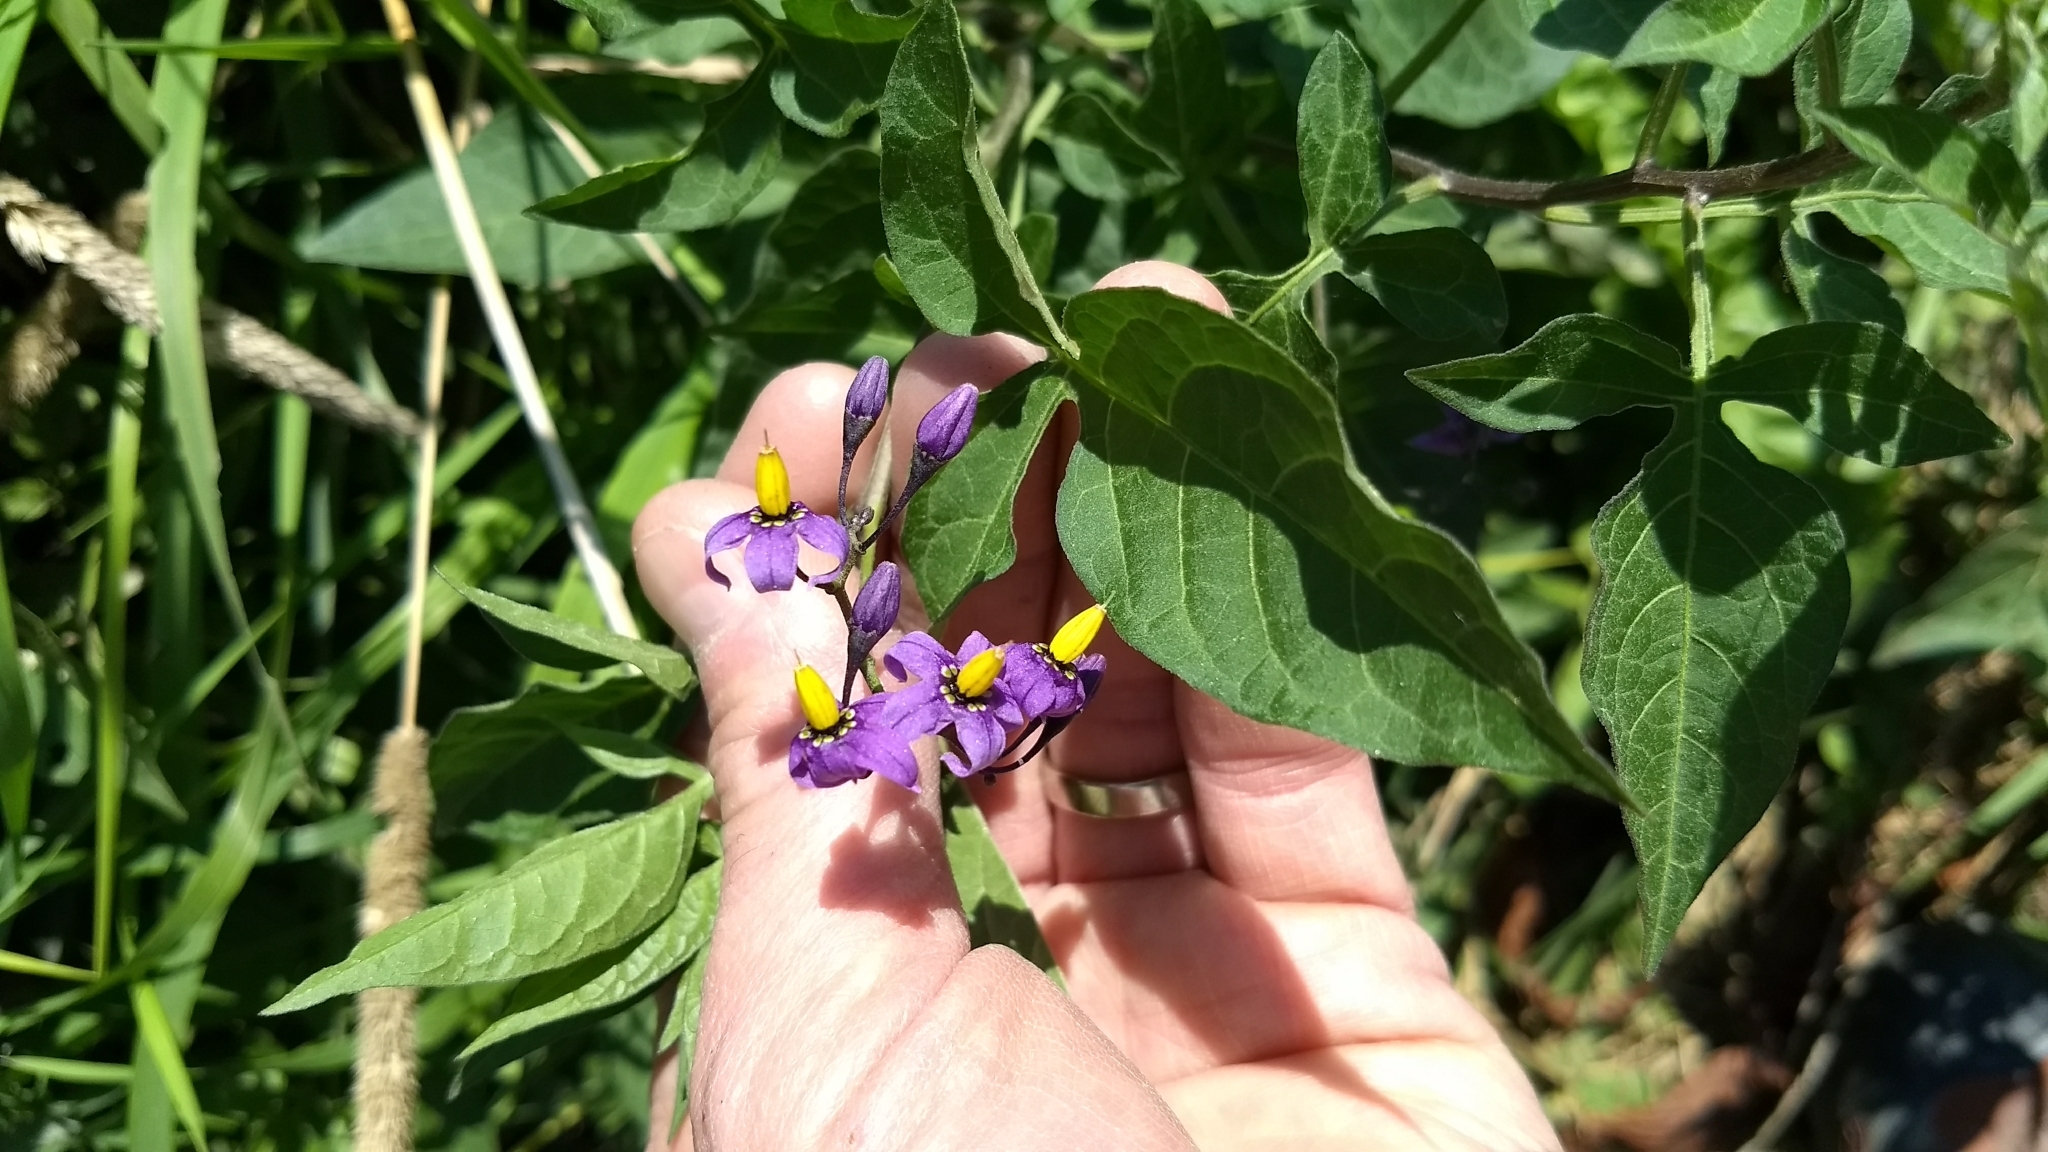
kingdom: Plantae
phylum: Tracheophyta
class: Magnoliopsida
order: Solanales
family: Solanaceae
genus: Solanum
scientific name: Solanum dulcamara
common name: Climbing nightshade
